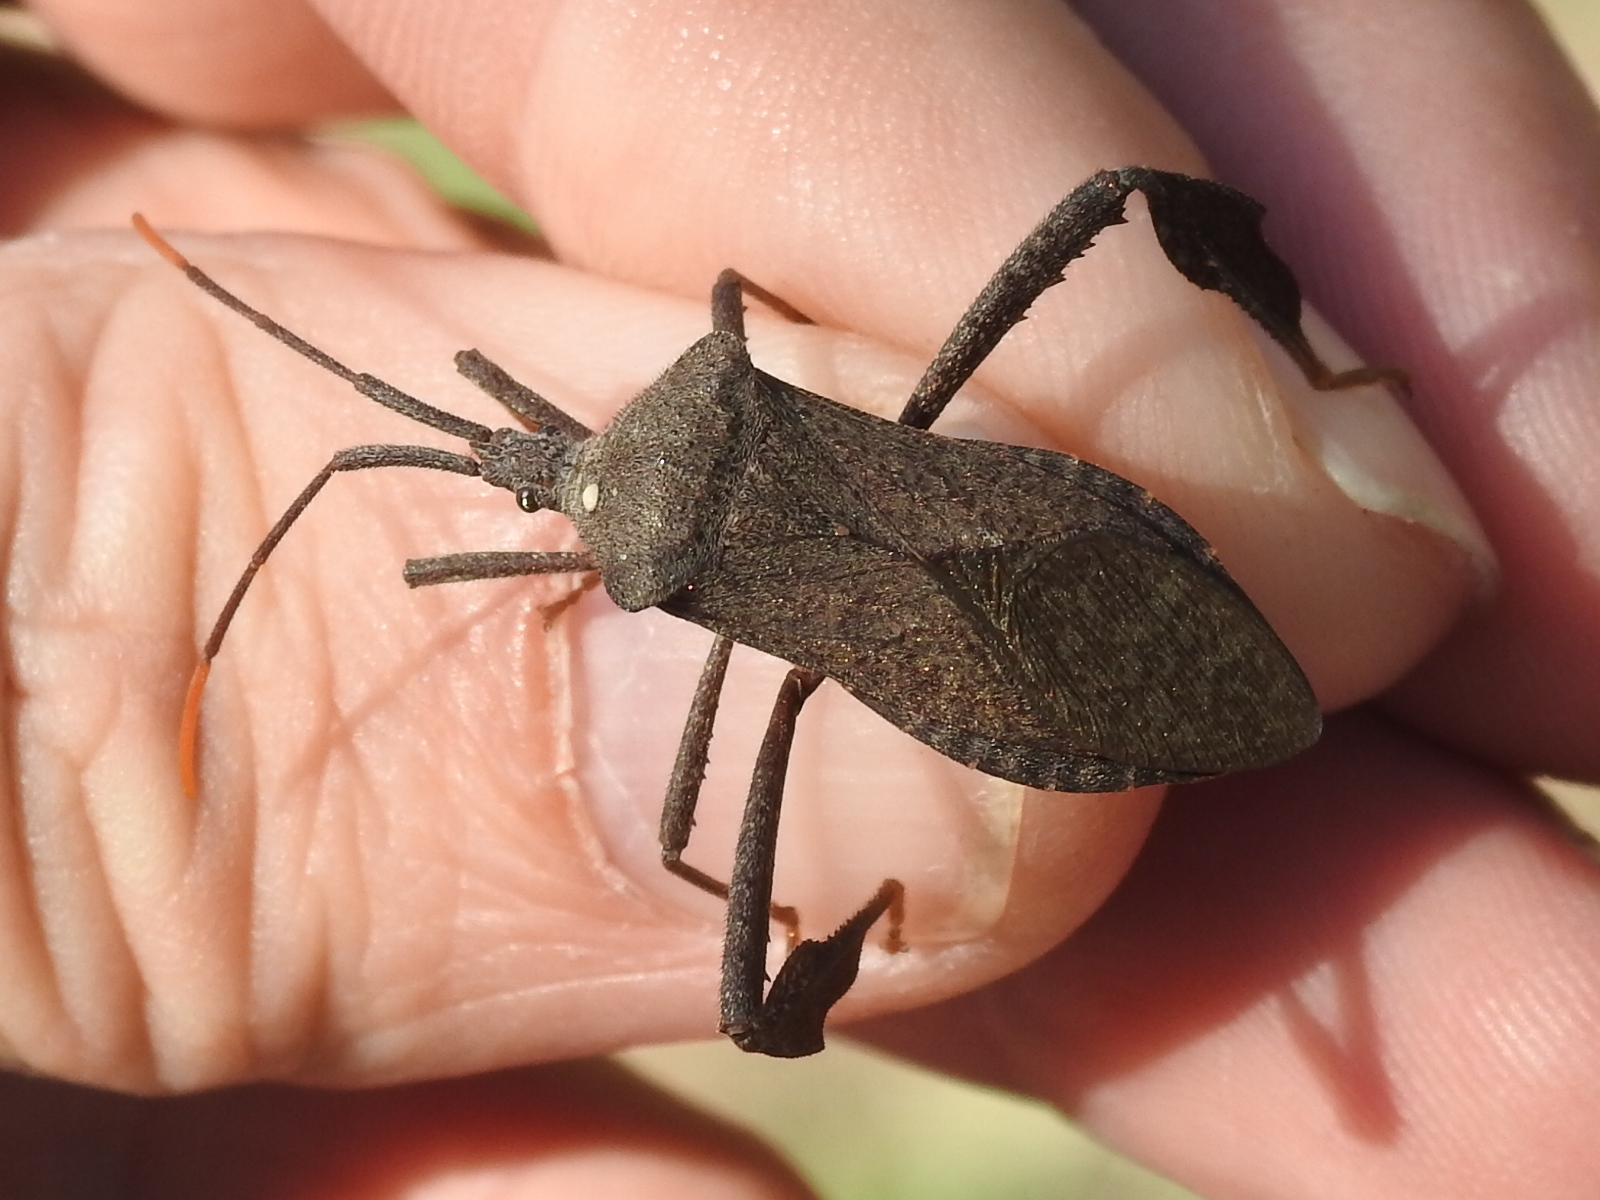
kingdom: Animalia
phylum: Arthropoda
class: Insecta
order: Hemiptera
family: Coreidae
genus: Acanthocephala
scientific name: Acanthocephala terminalis
